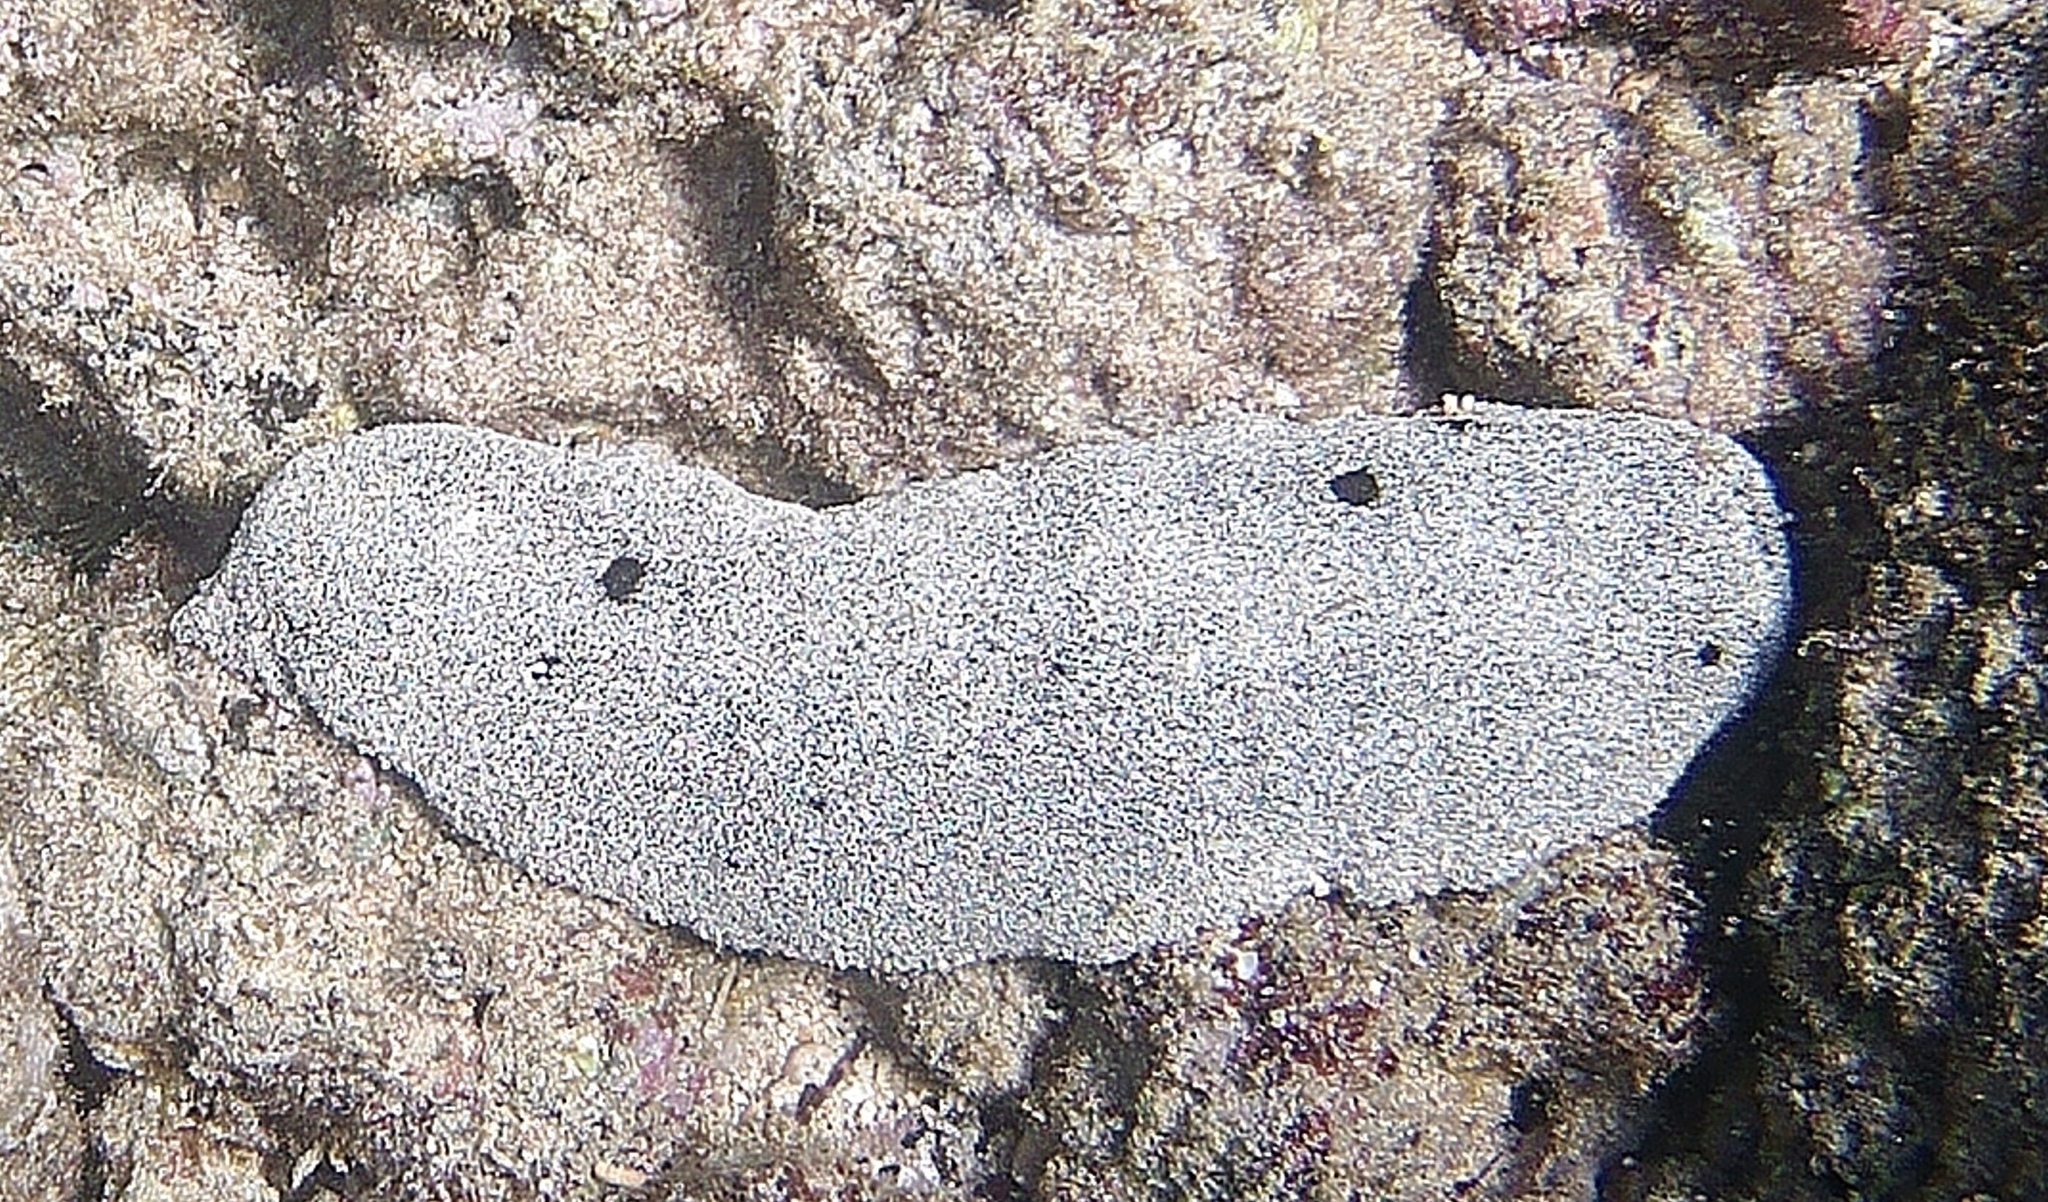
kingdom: Animalia
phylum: Echinodermata
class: Holothuroidea
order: Holothuriida
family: Holothuriidae
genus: Holothuria
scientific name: Holothuria whitmaei
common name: Black teatfish
